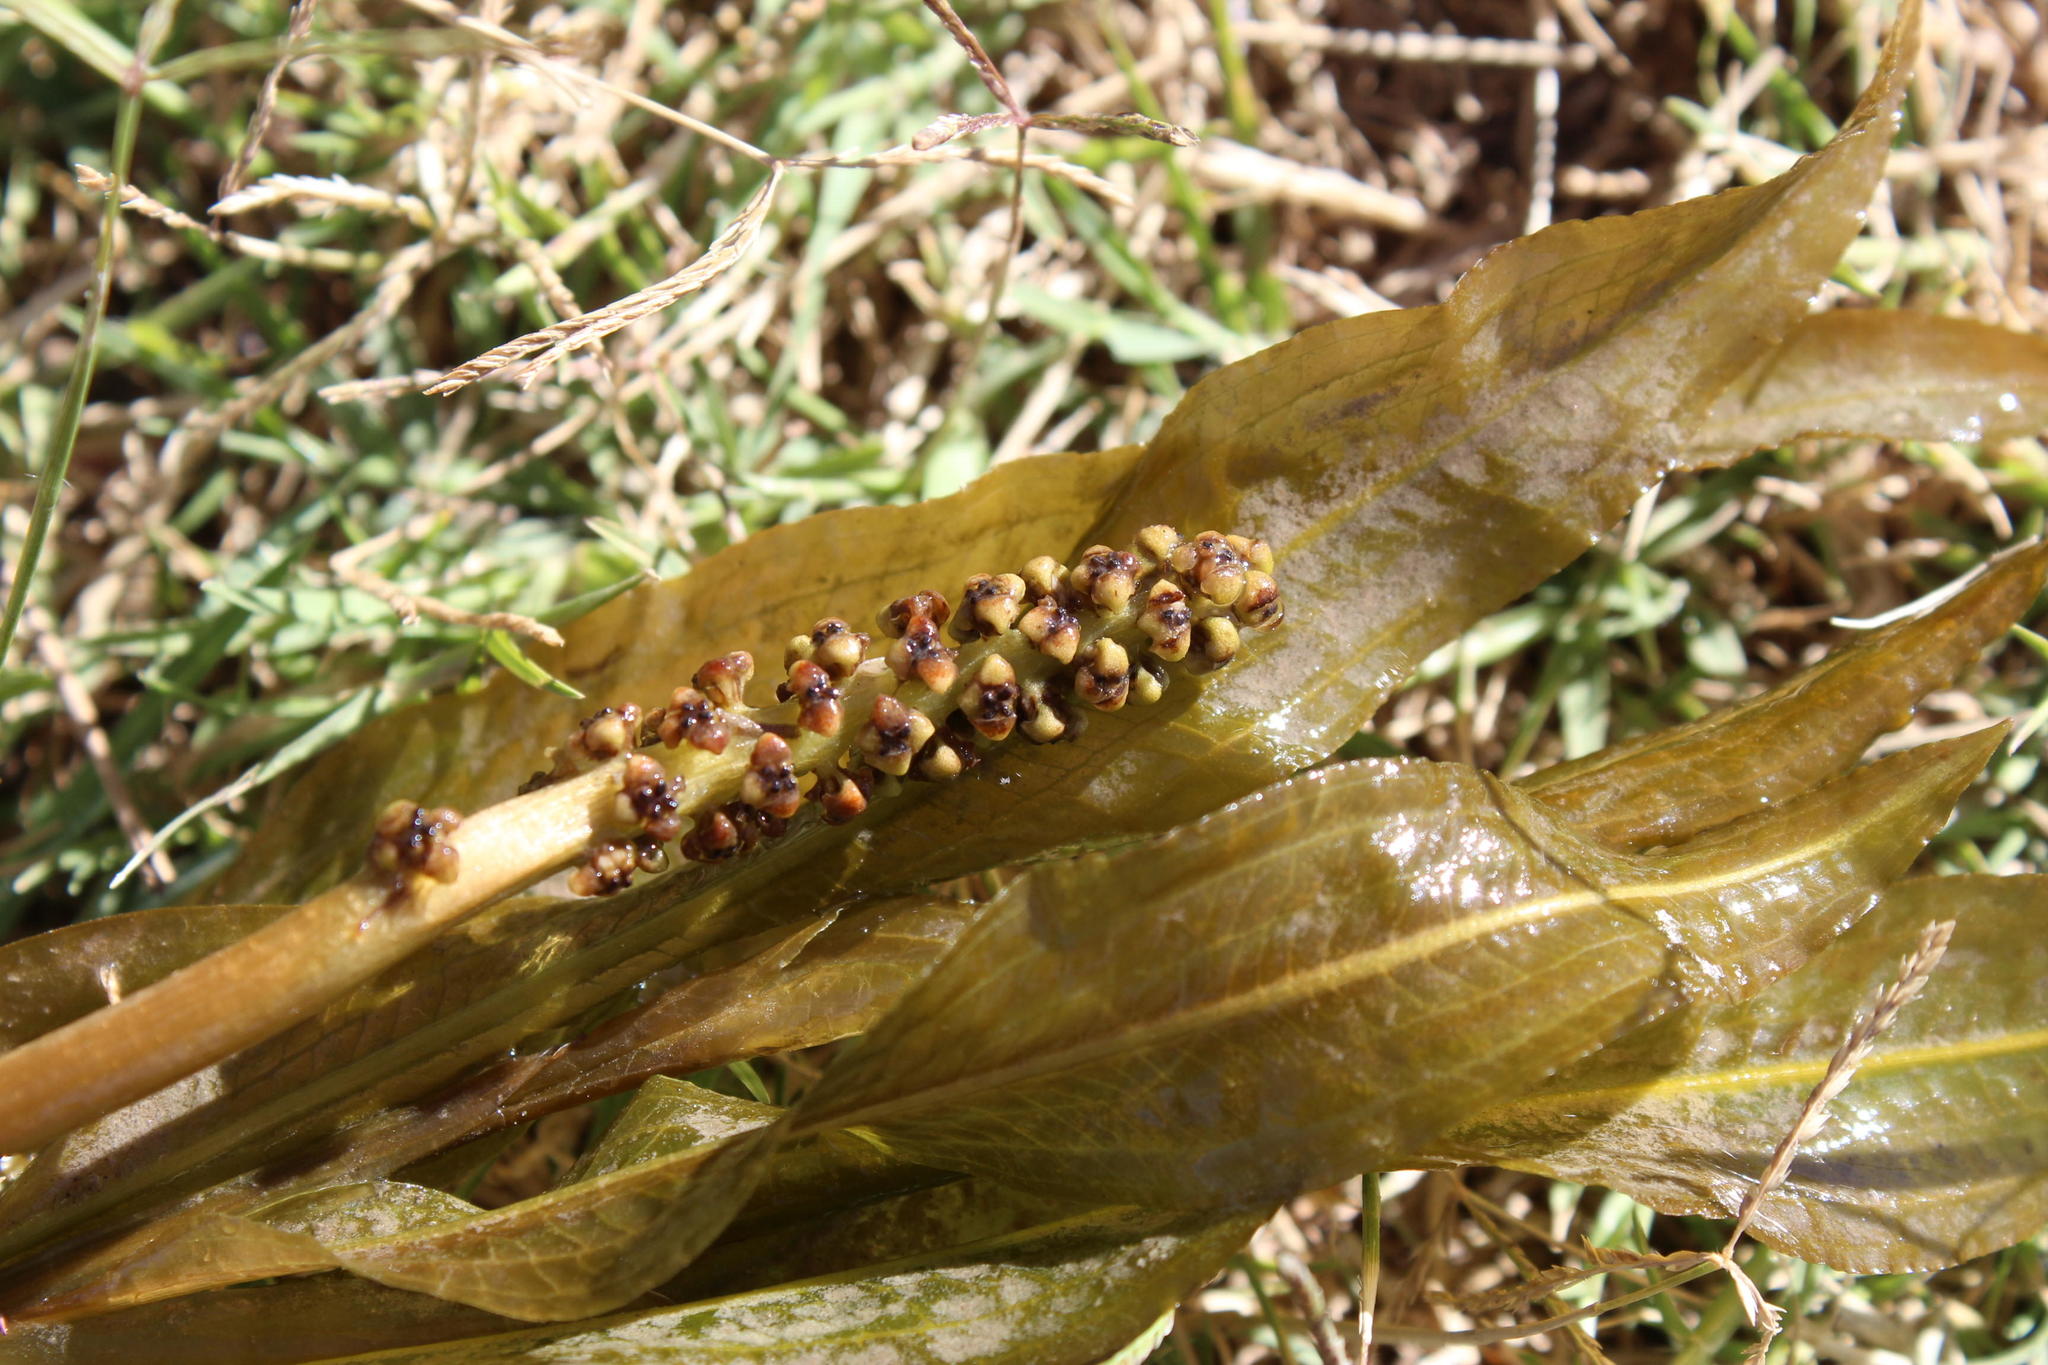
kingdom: Plantae
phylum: Tracheophyta
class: Liliopsida
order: Alismatales
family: Potamogetonaceae
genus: Potamogeton
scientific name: Potamogeton schweinfurthii
